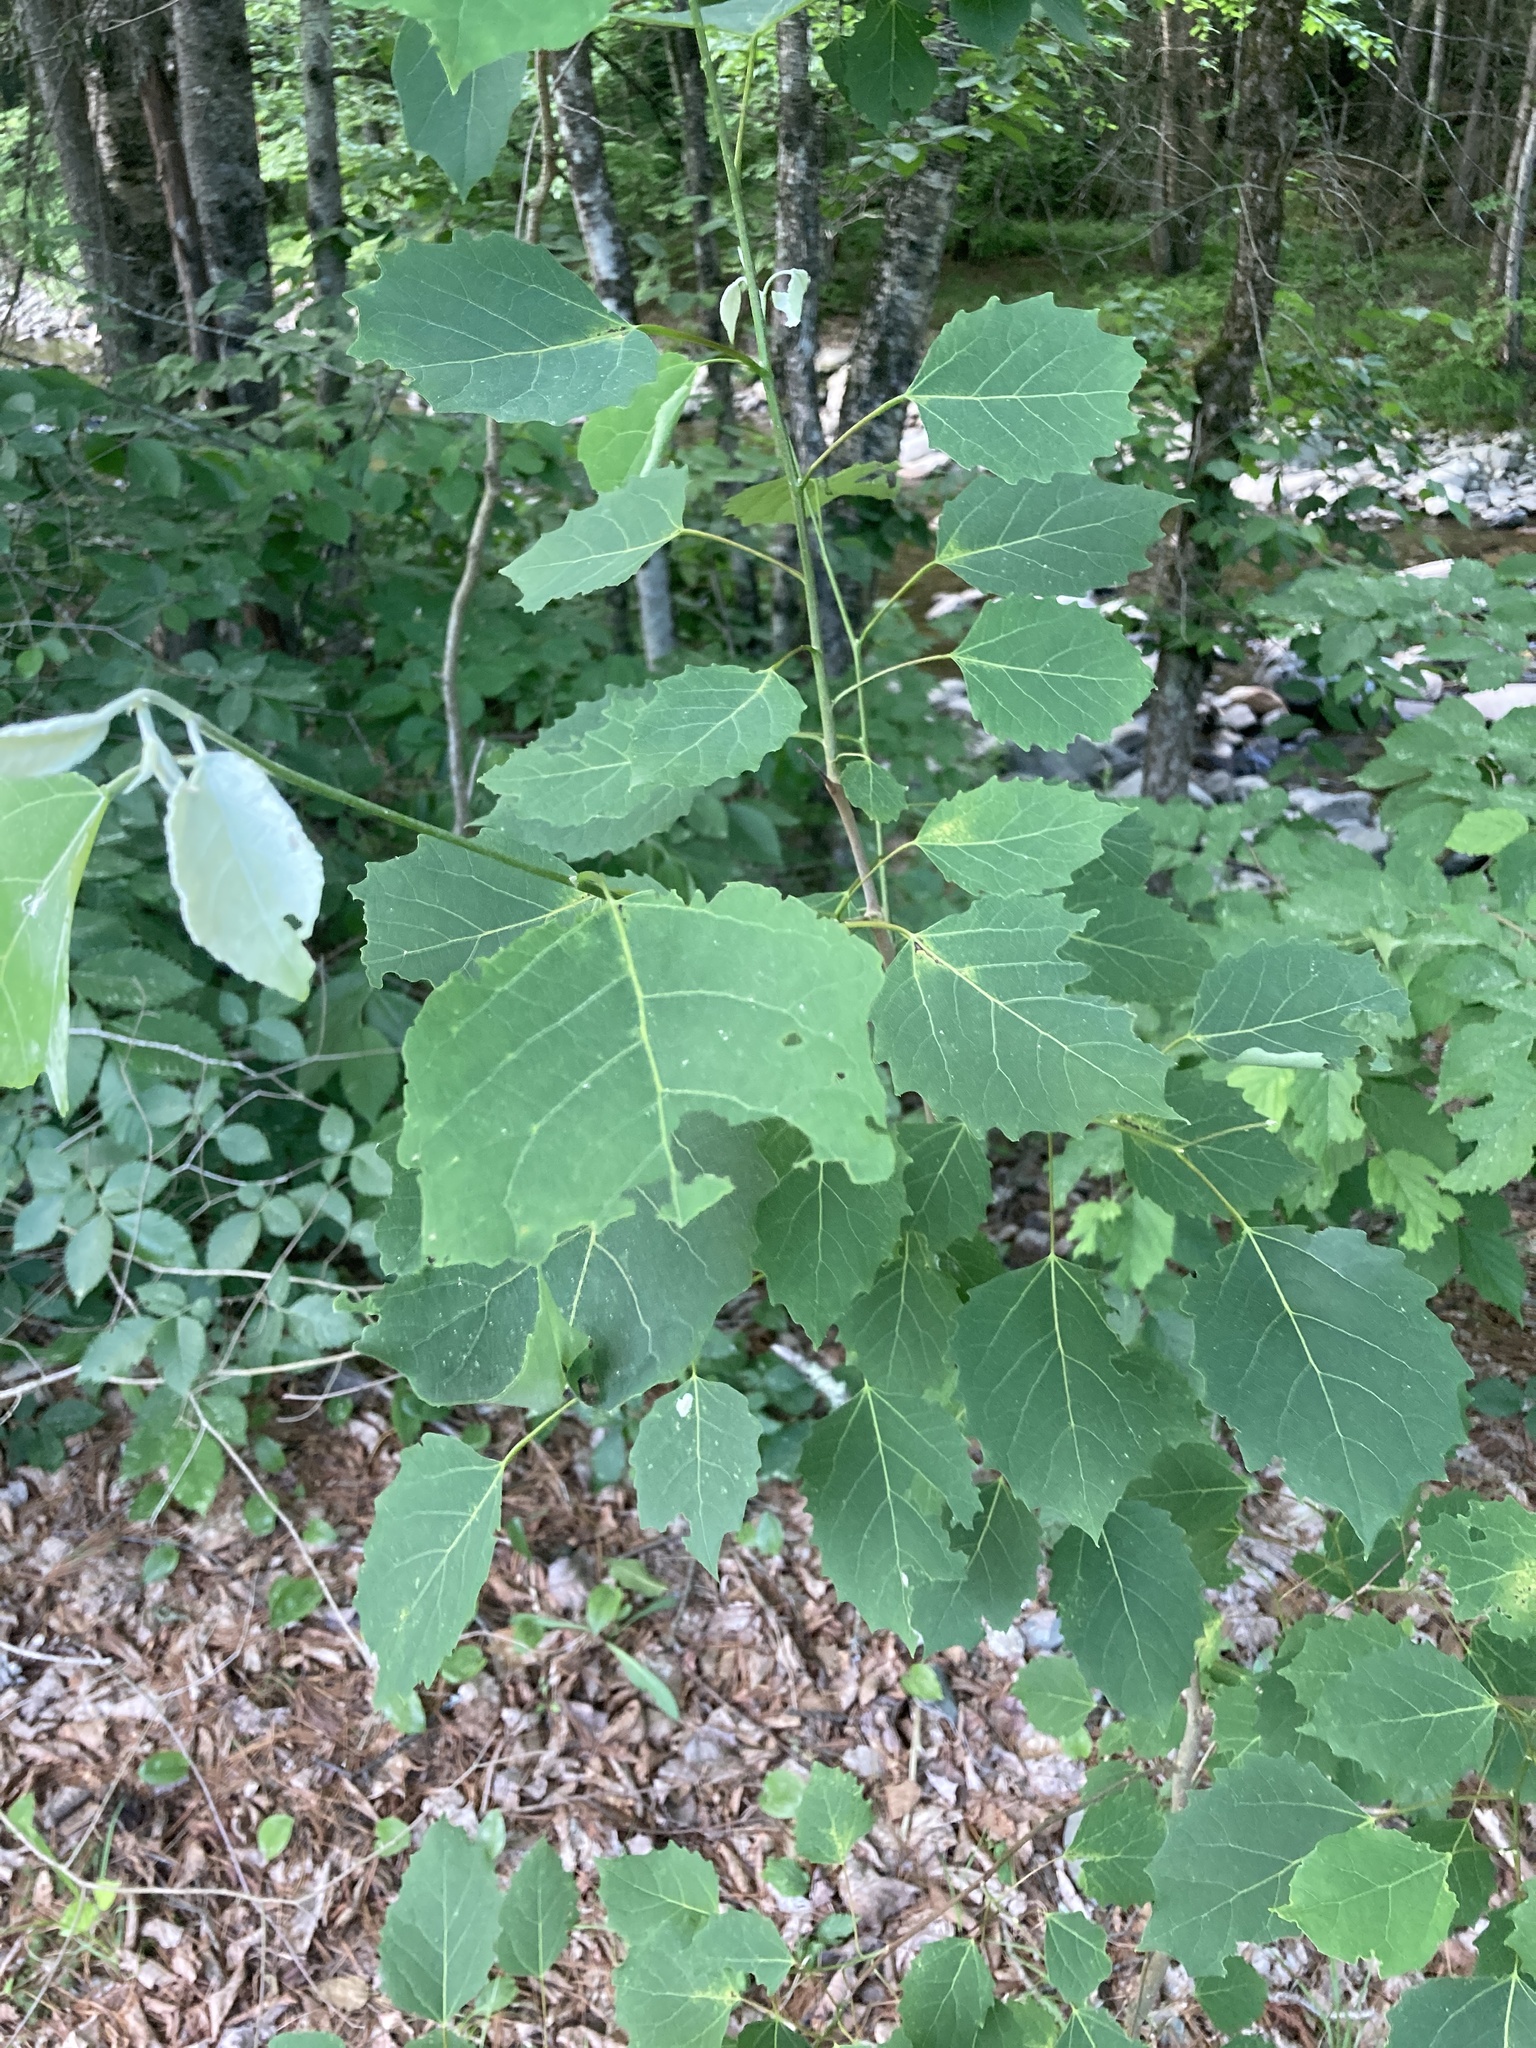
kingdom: Plantae
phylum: Tracheophyta
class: Magnoliopsida
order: Malpighiales
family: Salicaceae
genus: Populus
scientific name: Populus grandidentata
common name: Bigtooth aspen
